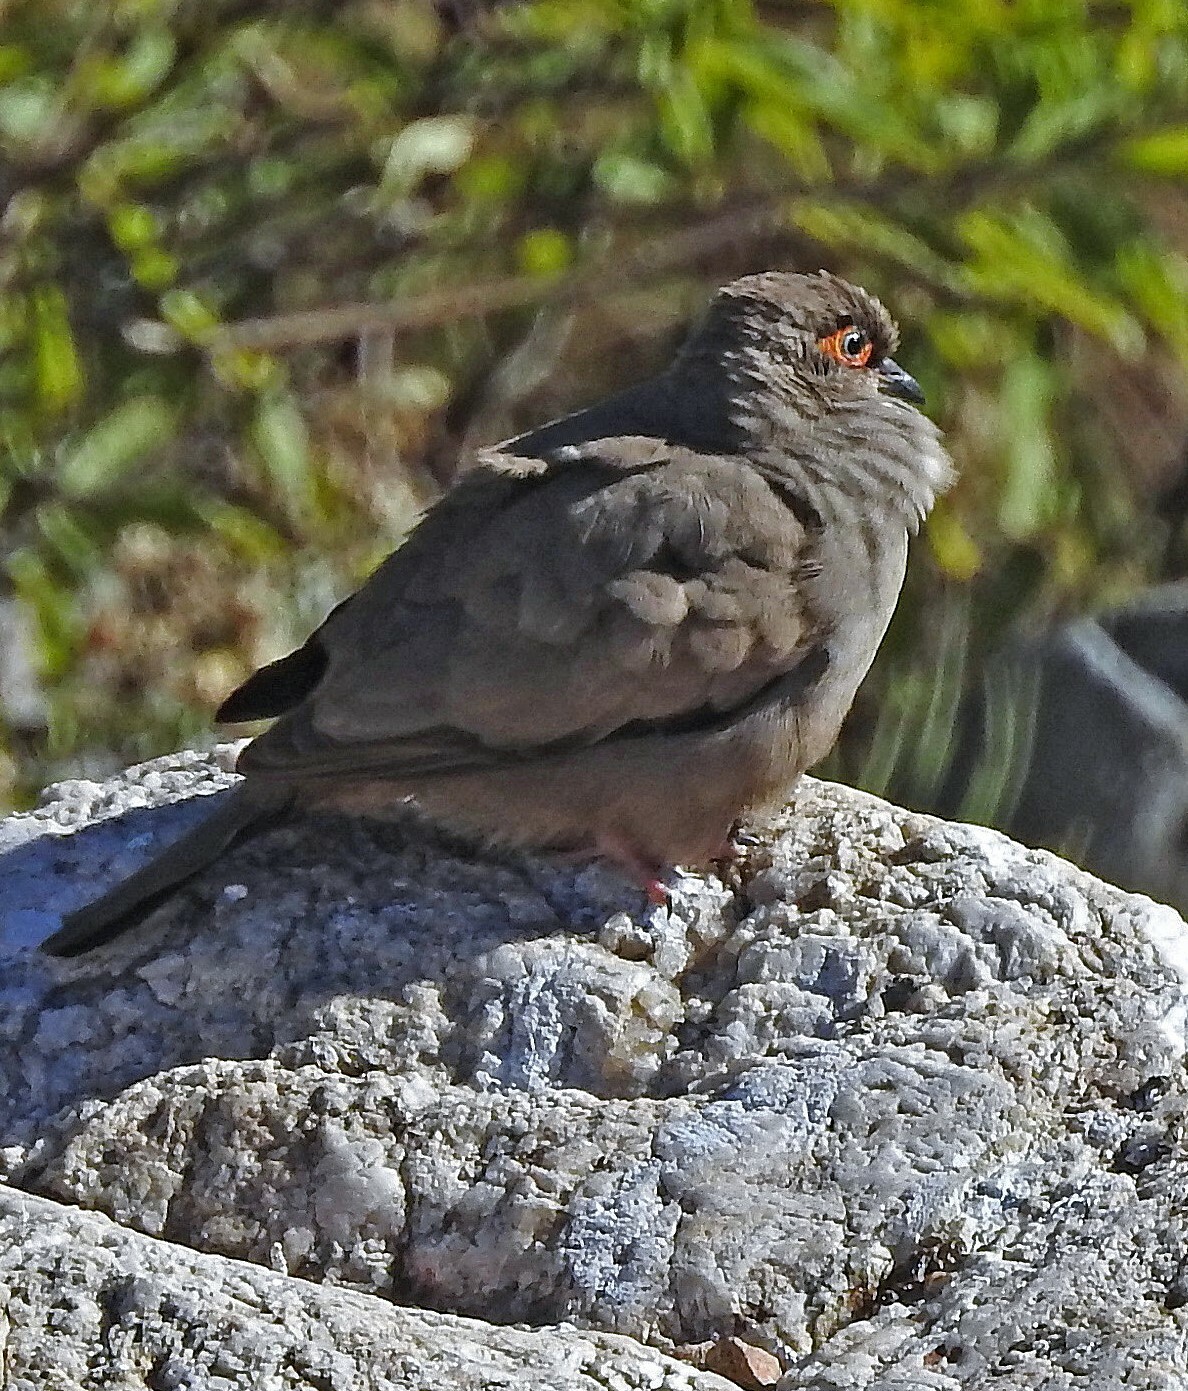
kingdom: Animalia
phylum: Chordata
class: Aves
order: Columbiformes
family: Columbidae
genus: Metriopelia
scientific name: Metriopelia morenoi
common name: Moreno's ground dove
